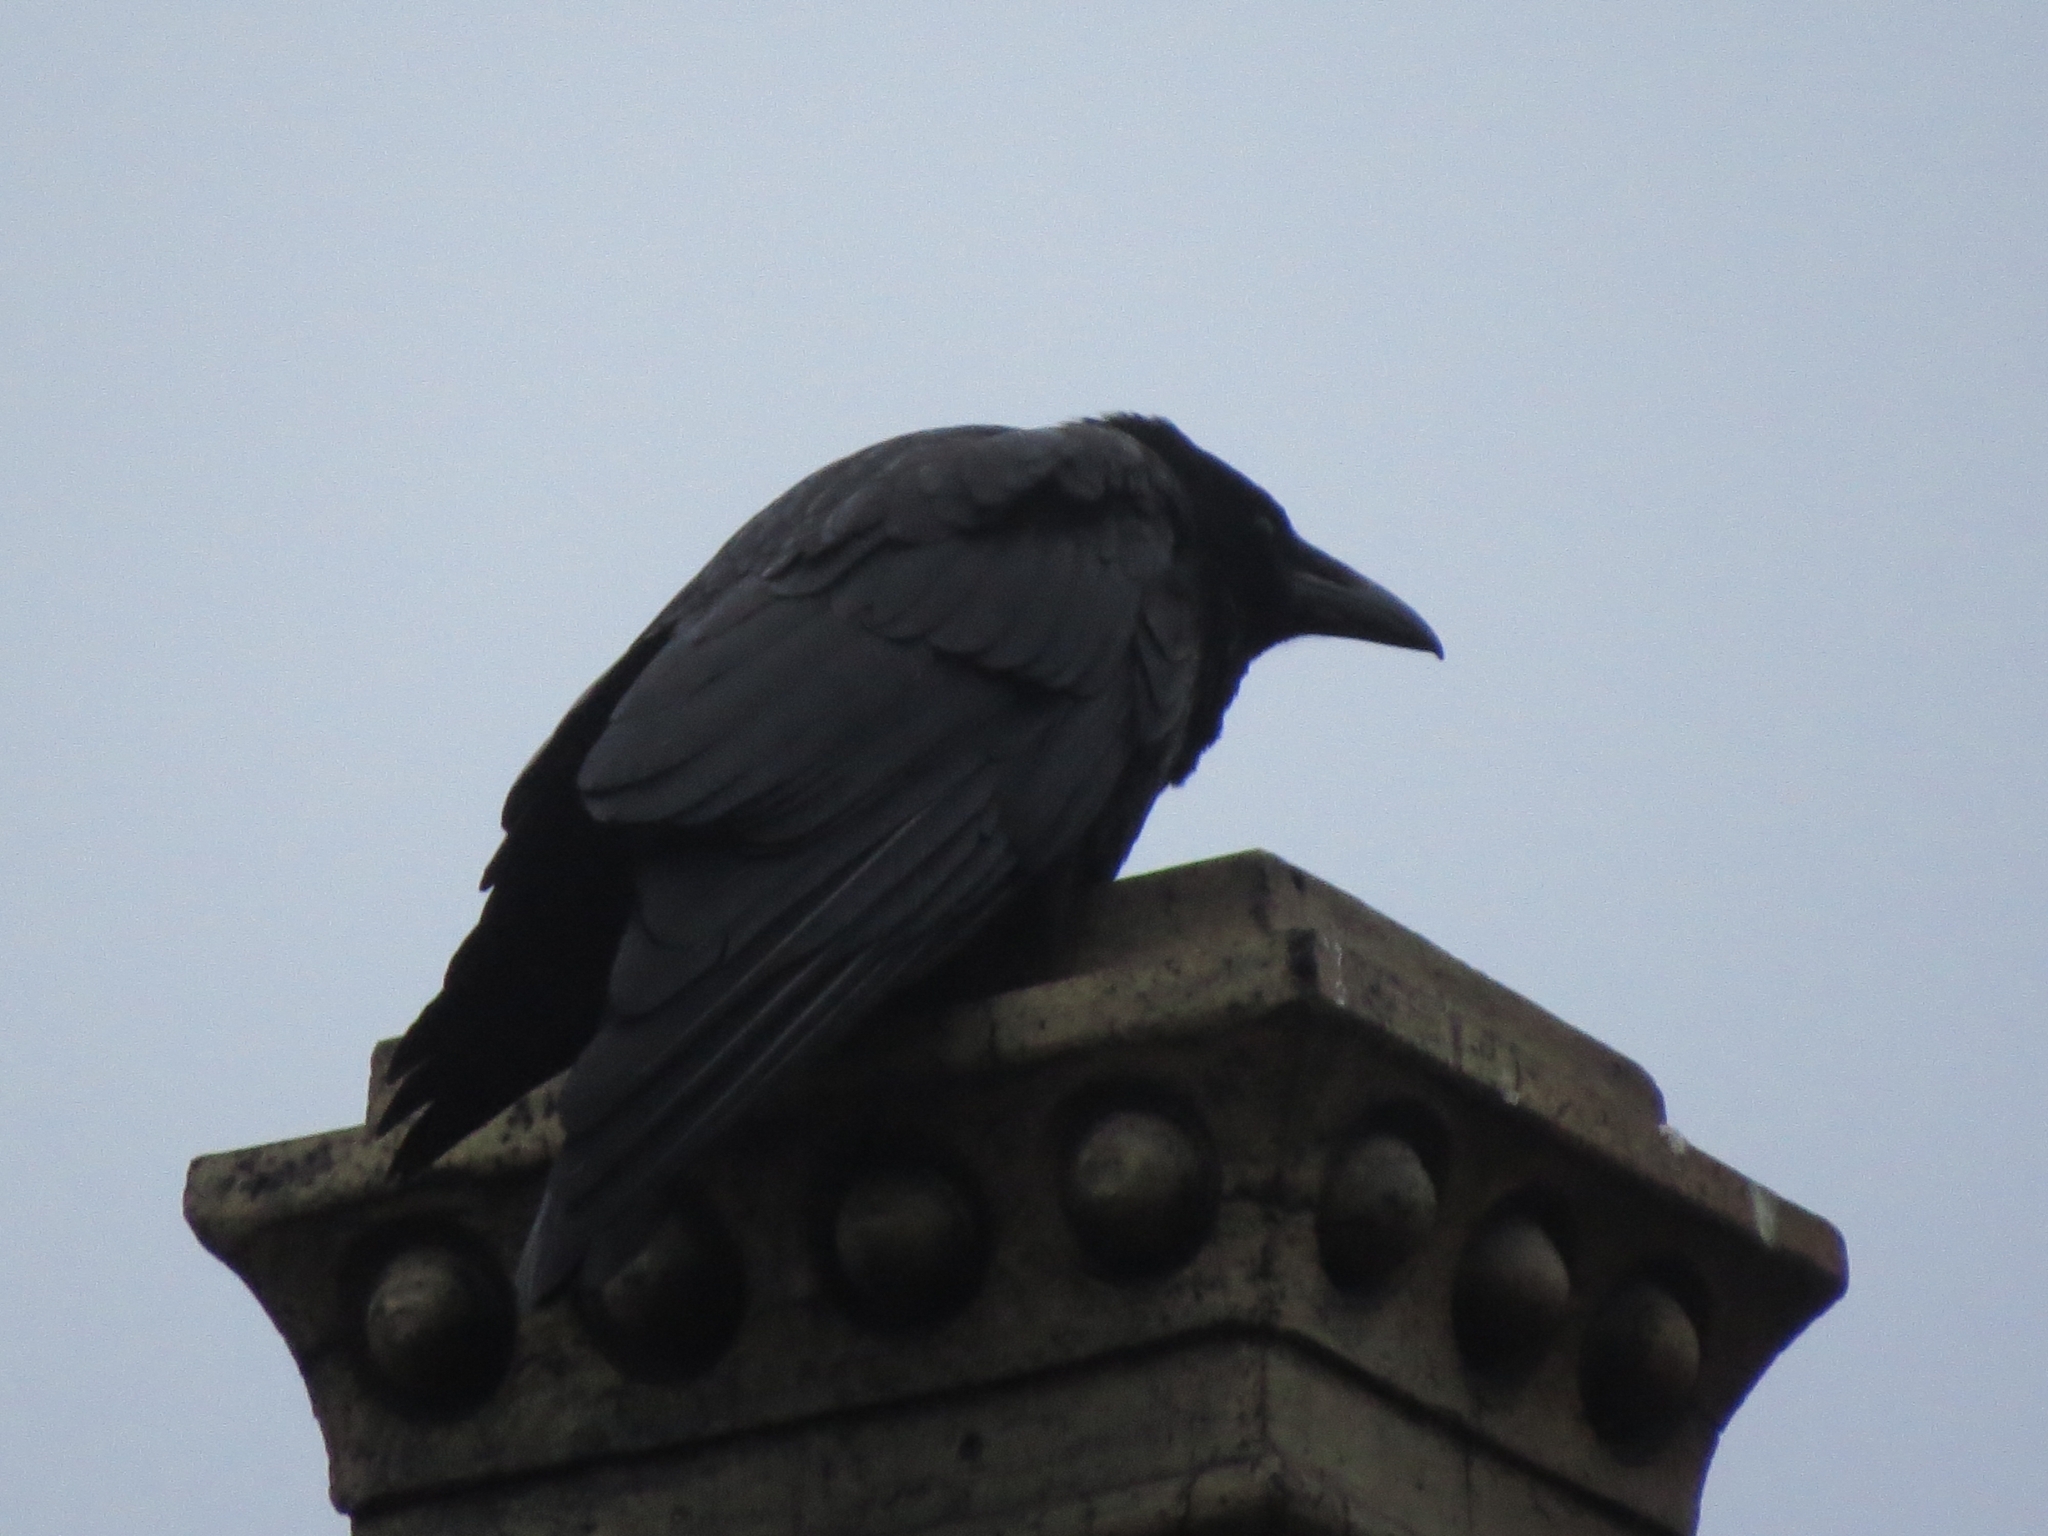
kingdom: Animalia
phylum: Chordata
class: Aves
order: Passeriformes
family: Corvidae
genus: Corvus
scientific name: Corvus corax
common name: Common raven
